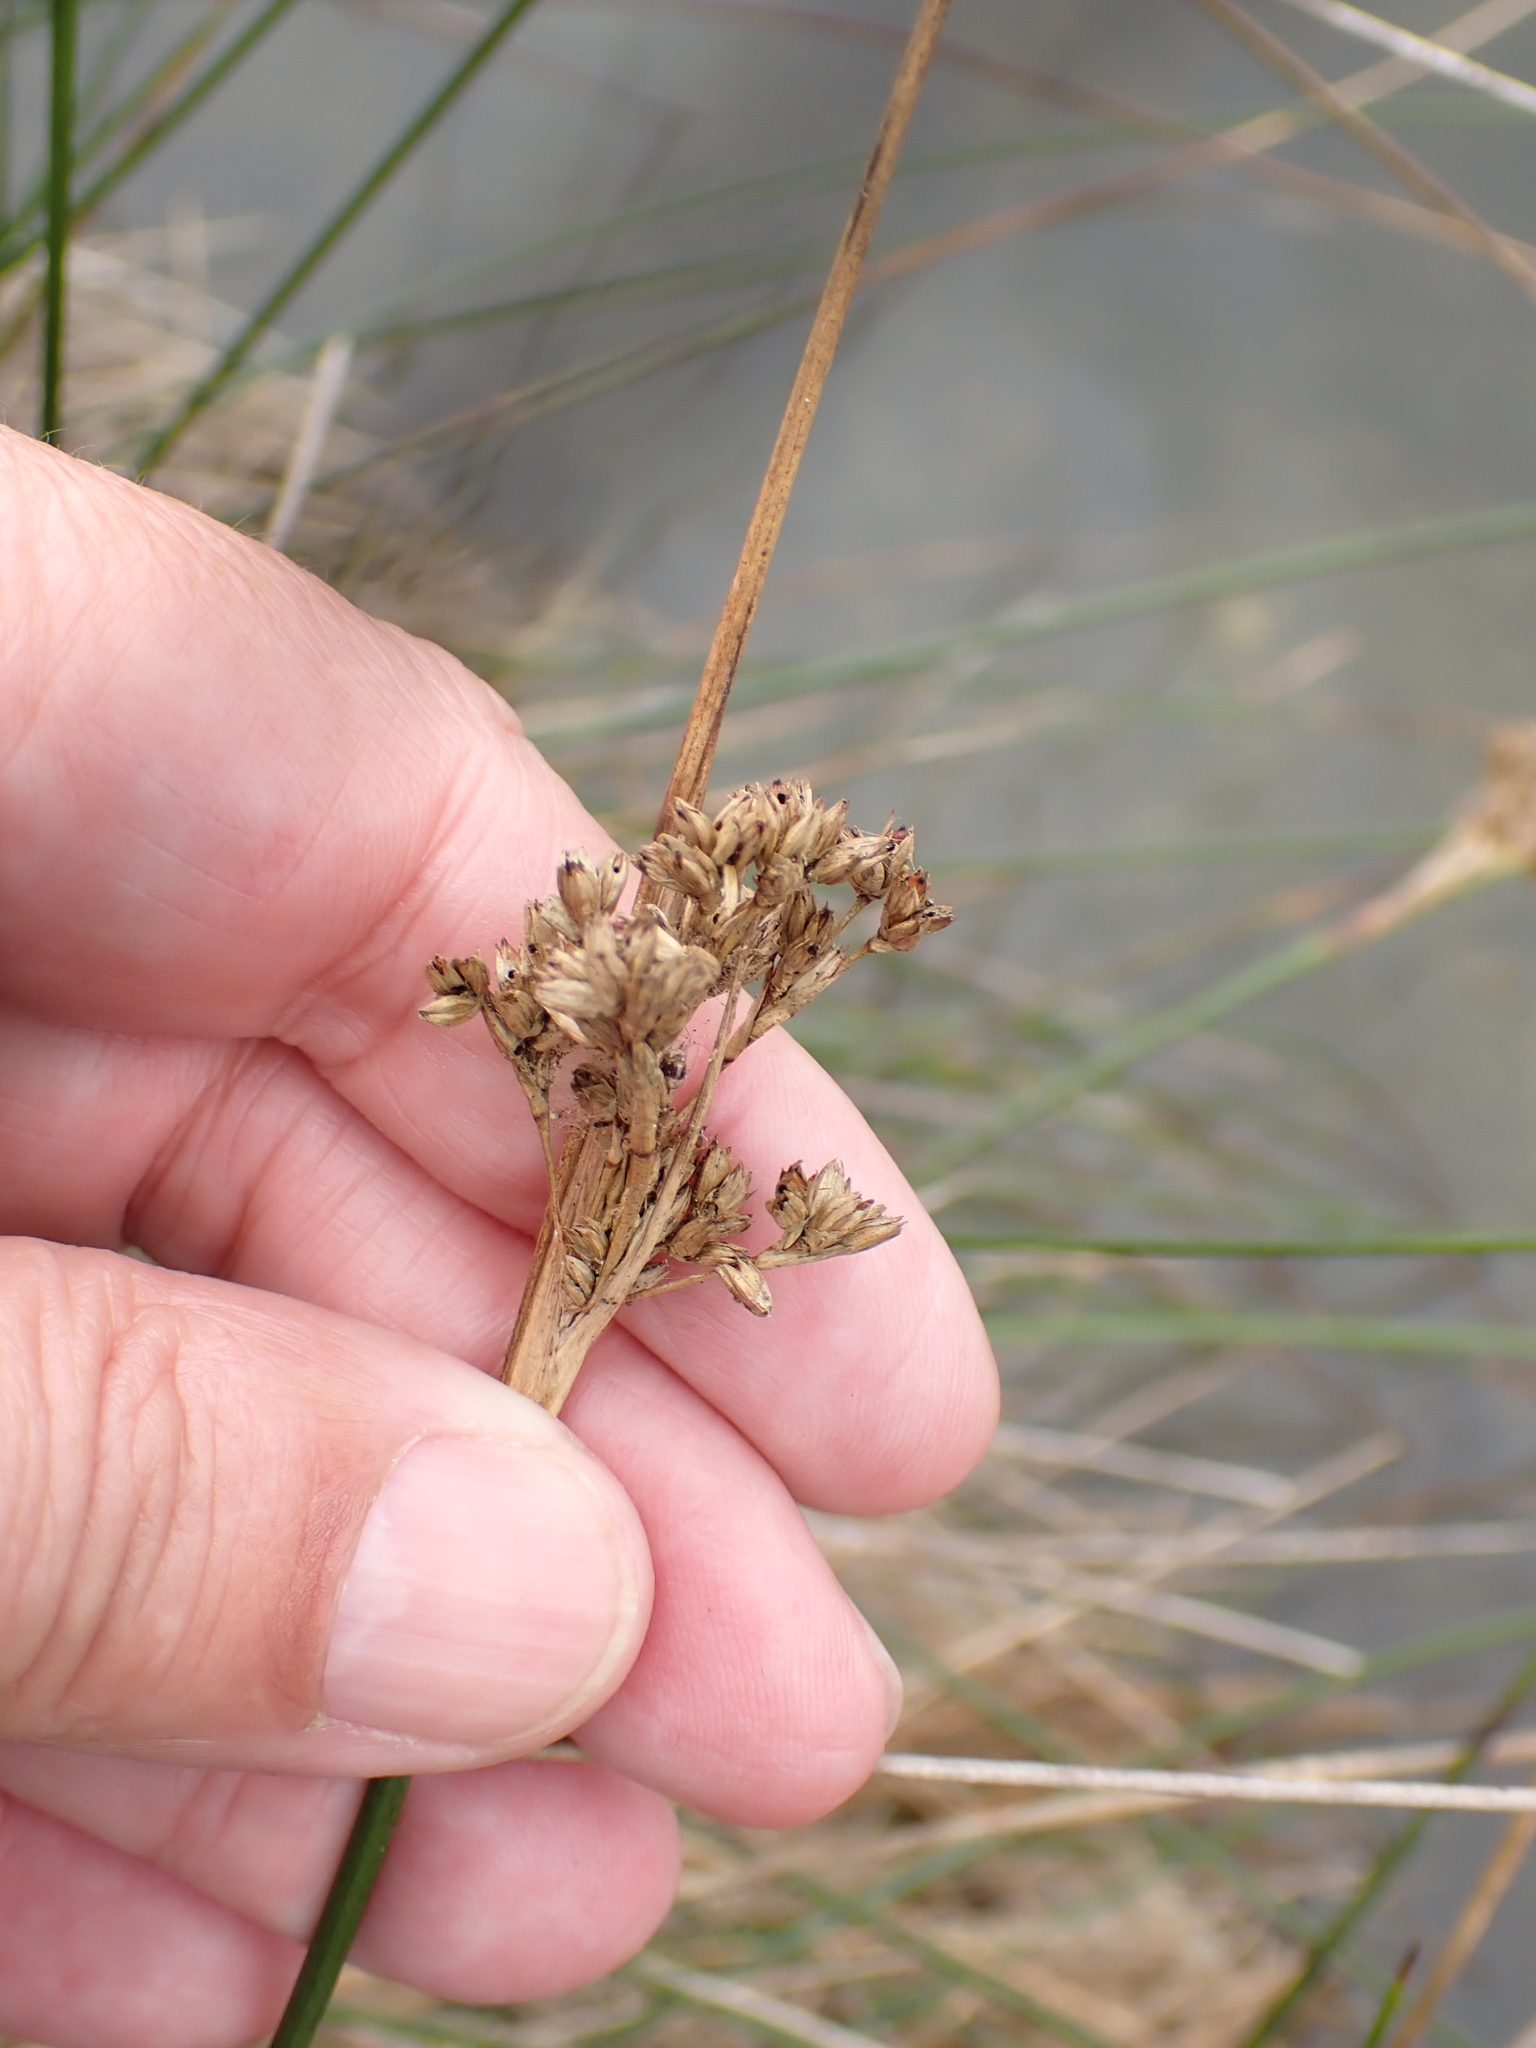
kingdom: Plantae
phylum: Tracheophyta
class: Liliopsida
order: Poales
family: Juncaceae
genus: Juncus
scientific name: Juncus maritimus
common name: Sea rush
